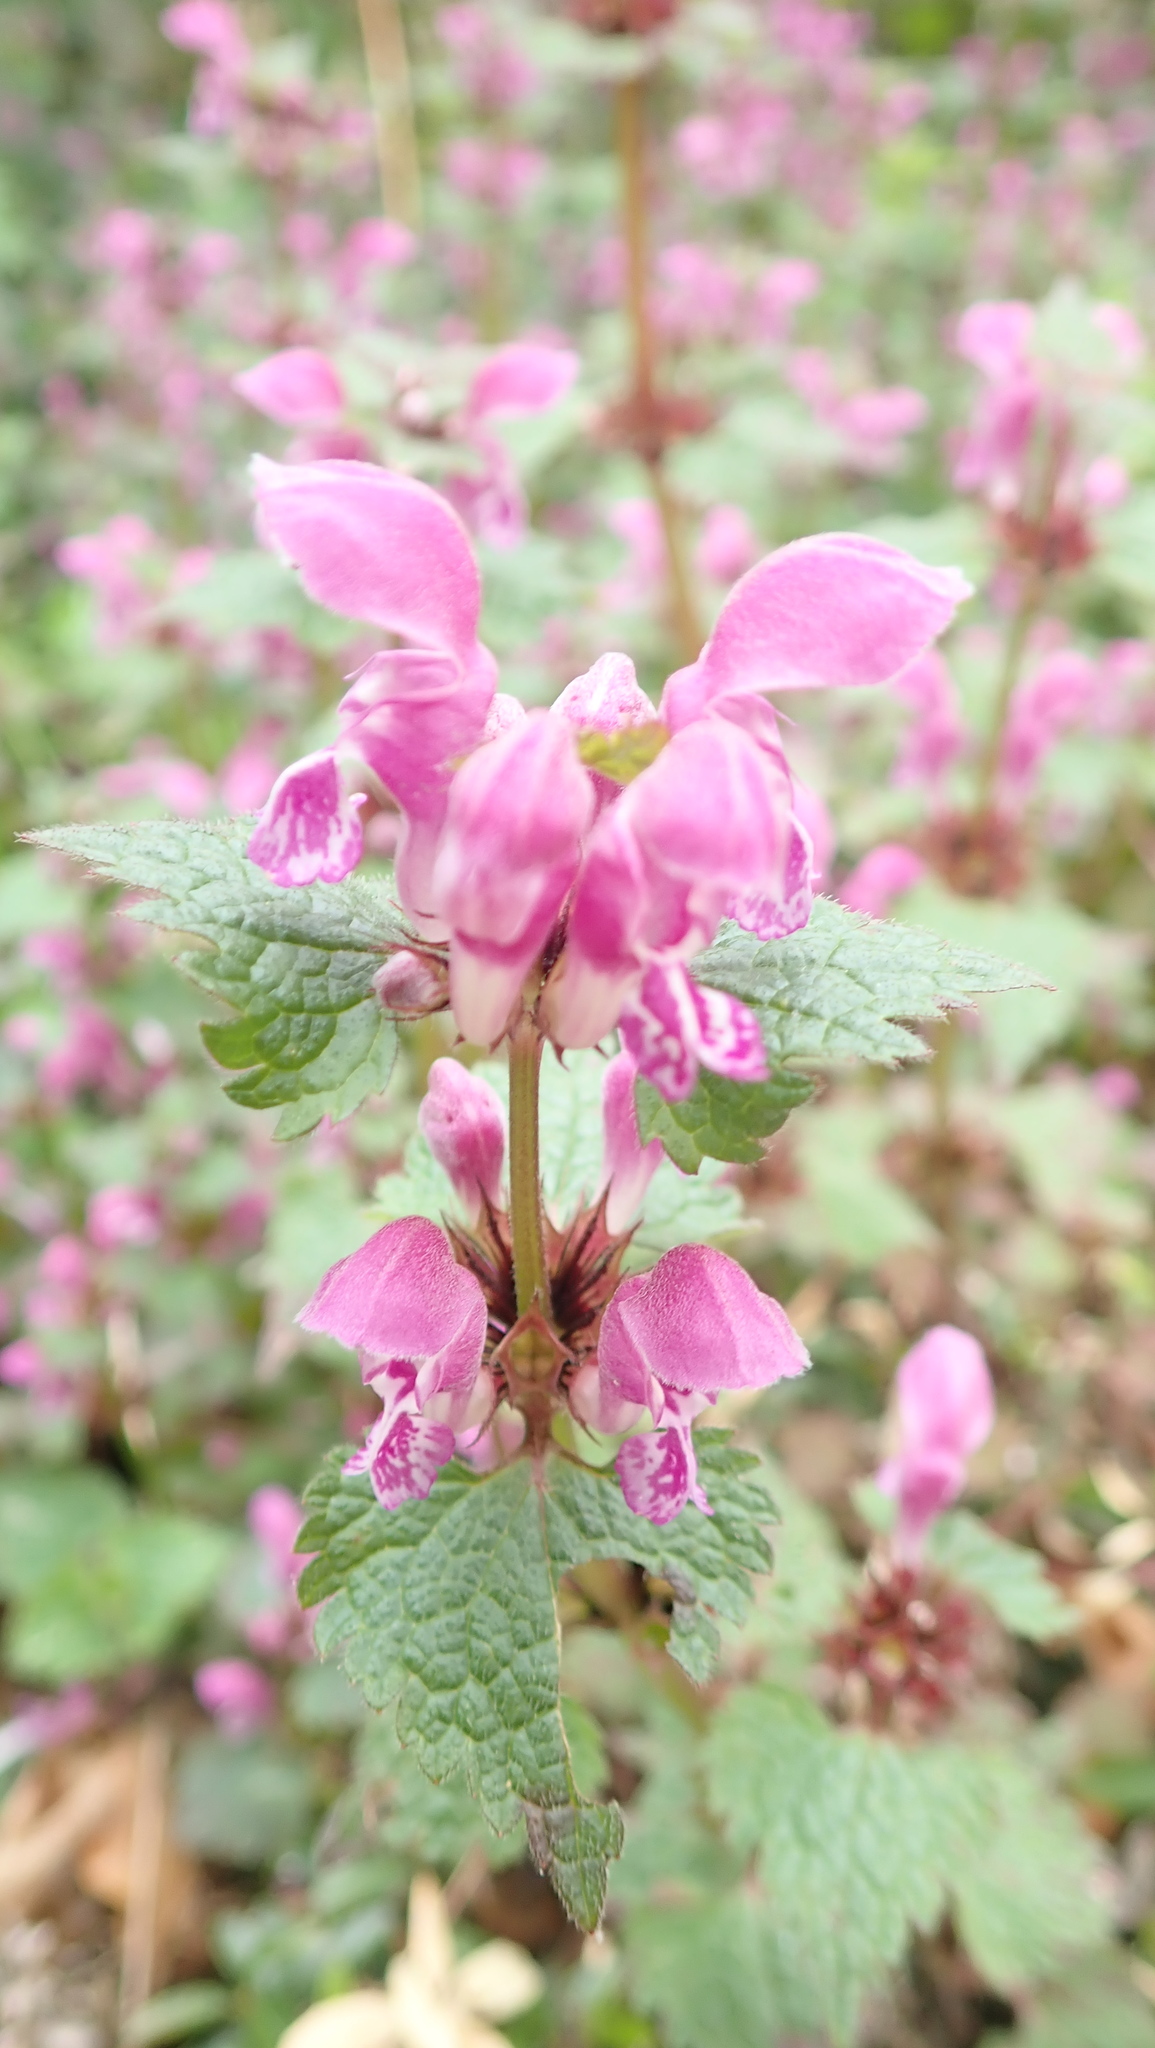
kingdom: Plantae
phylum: Tracheophyta
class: Magnoliopsida
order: Lamiales
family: Lamiaceae
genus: Lamium
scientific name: Lamium maculatum
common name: Spotted dead-nettle
